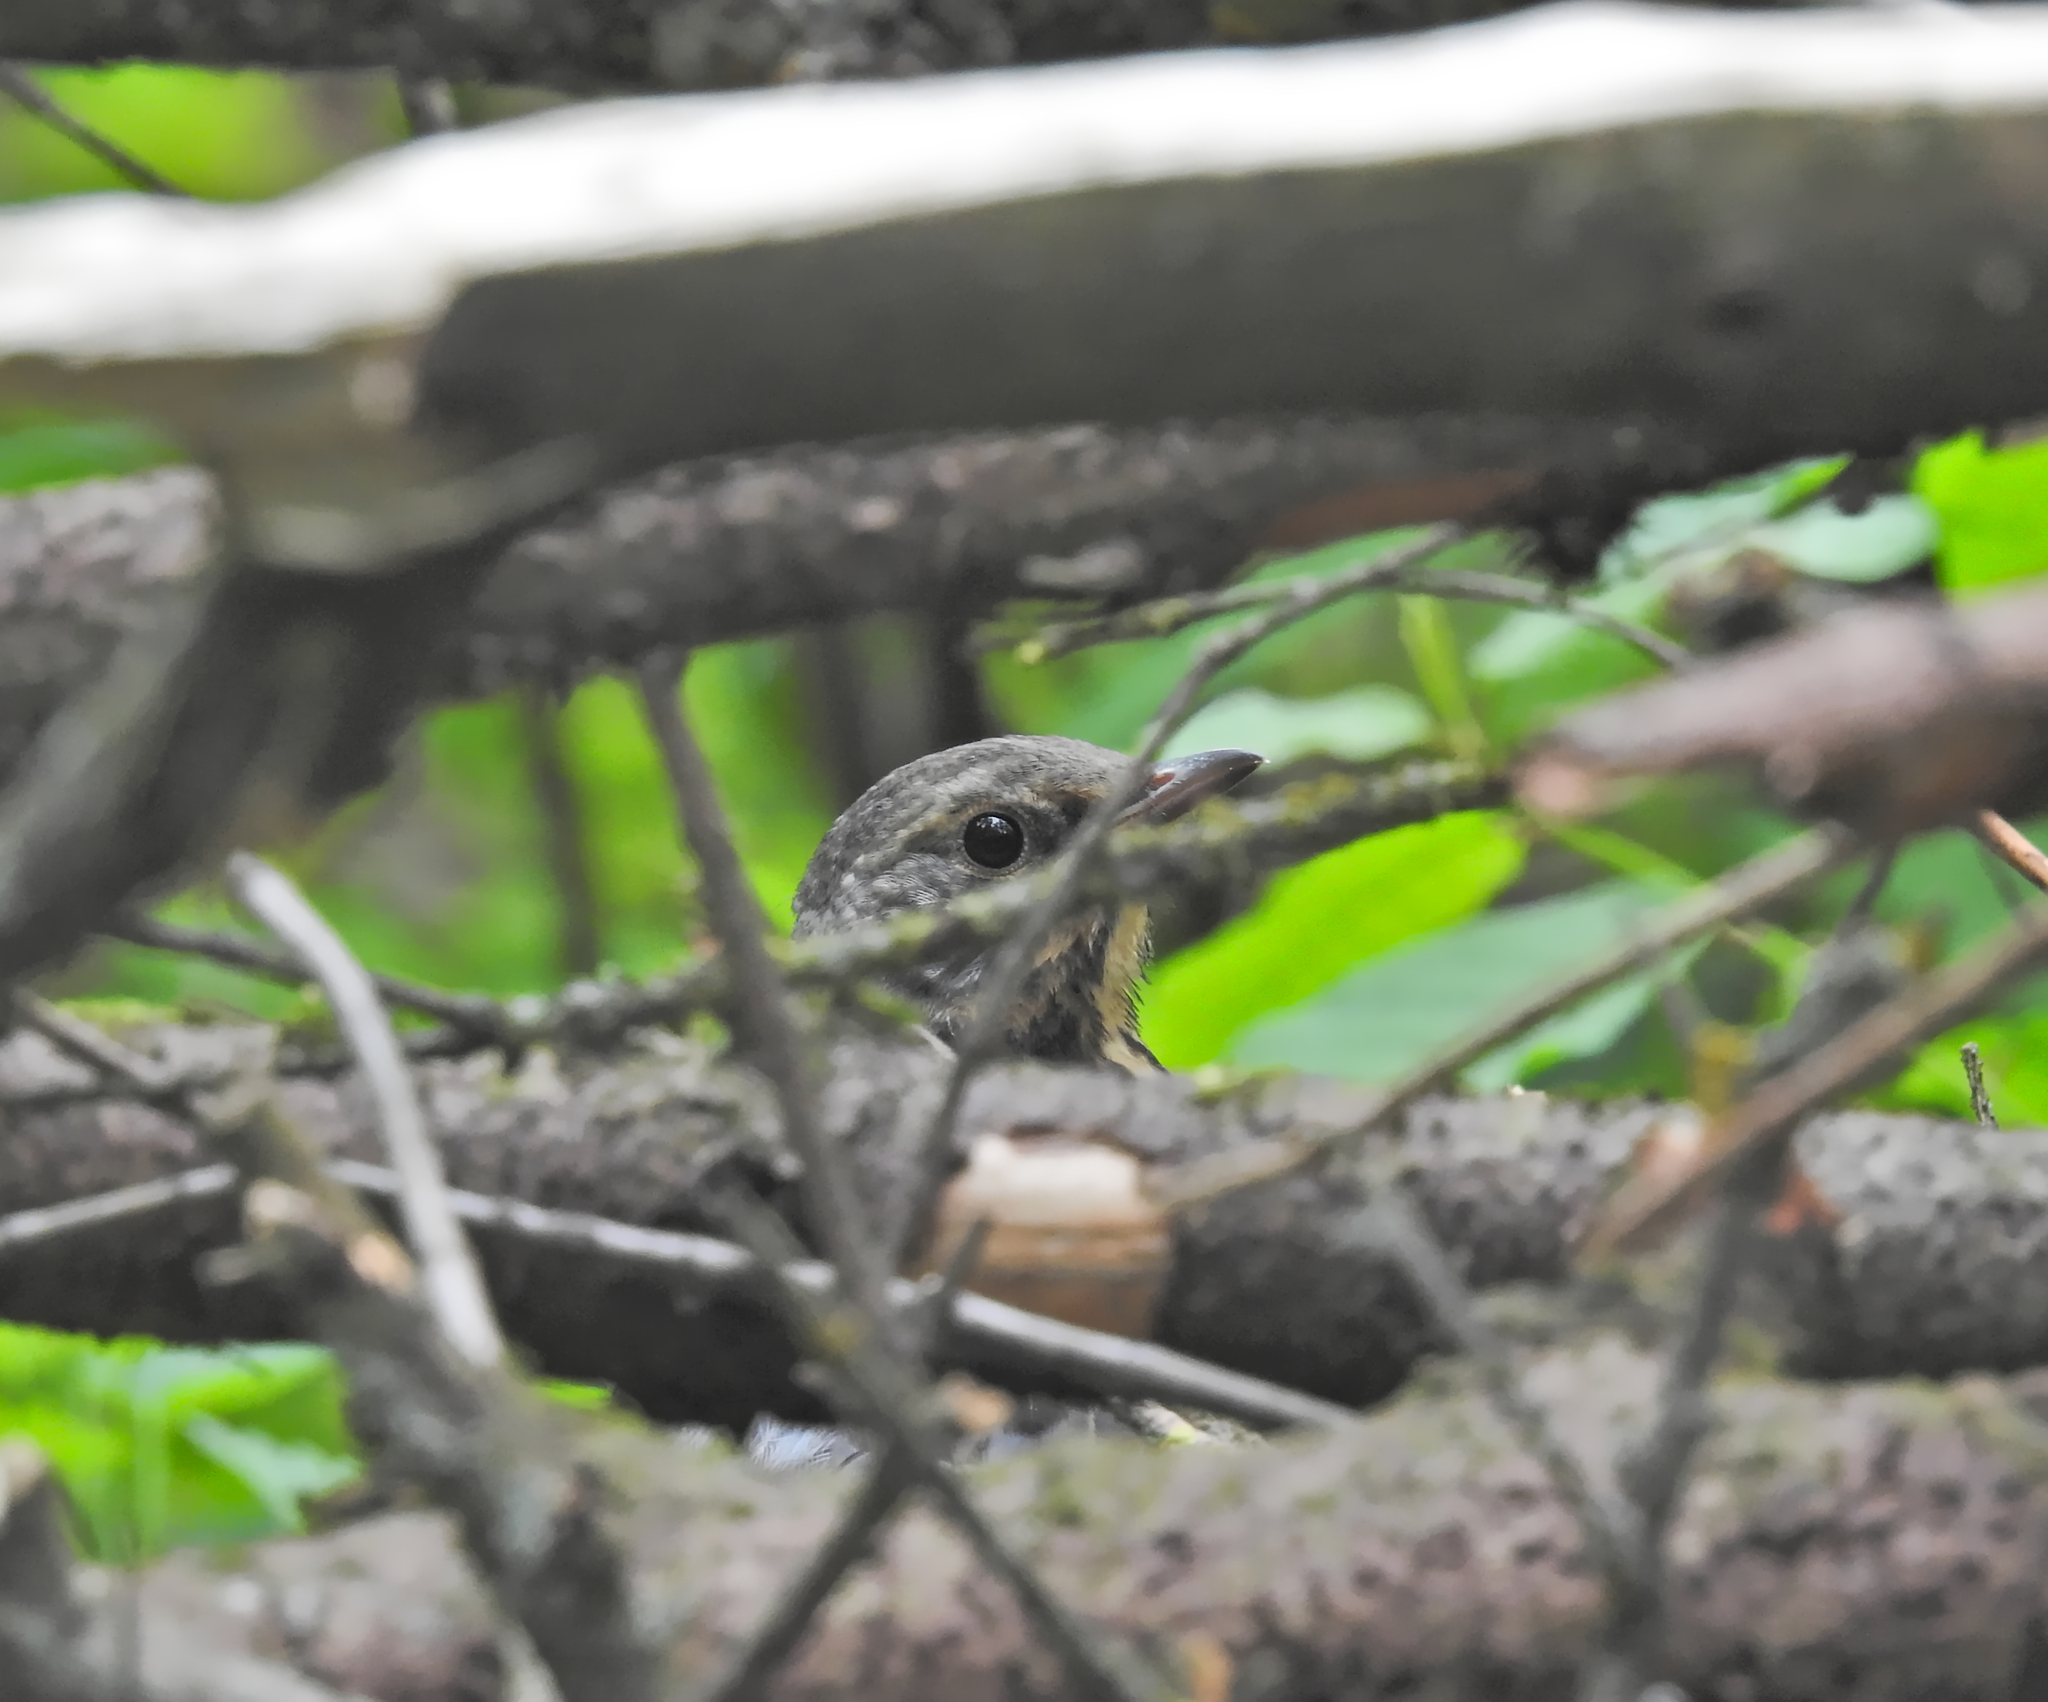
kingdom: Animalia
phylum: Chordata
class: Aves
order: Passeriformes
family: Turdidae
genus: Turdus
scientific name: Turdus pilaris
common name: Fieldfare
